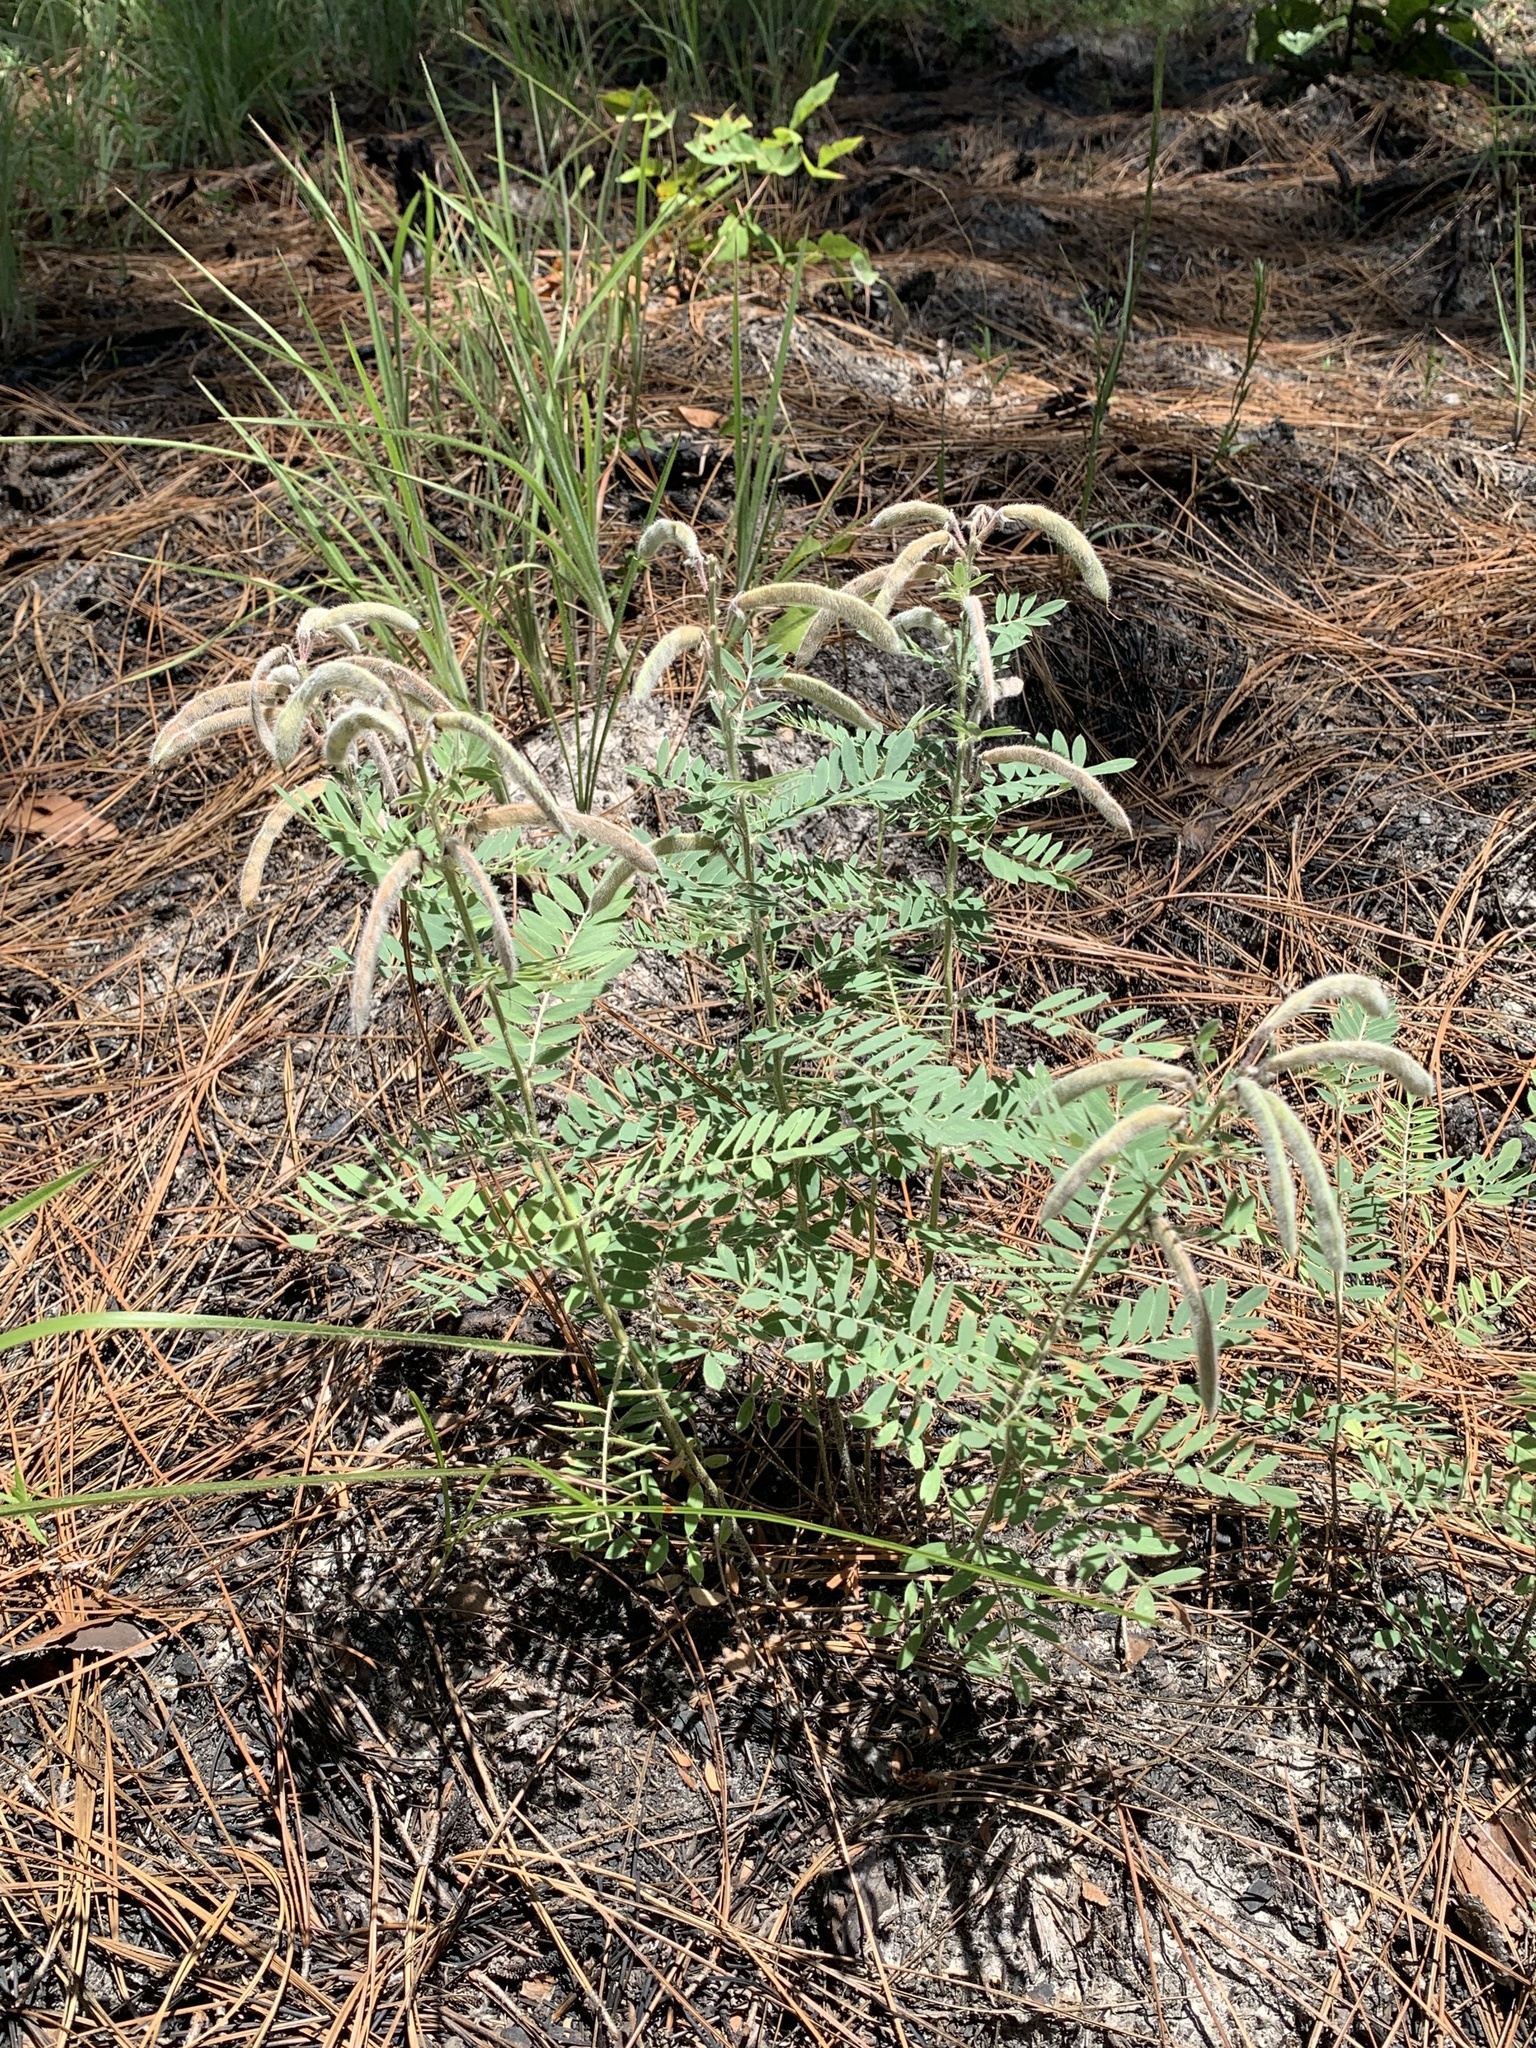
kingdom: Plantae
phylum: Tracheophyta
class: Magnoliopsida
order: Fabales
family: Fabaceae
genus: Tephrosia
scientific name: Tephrosia virginiana
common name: Rabbit-pea
